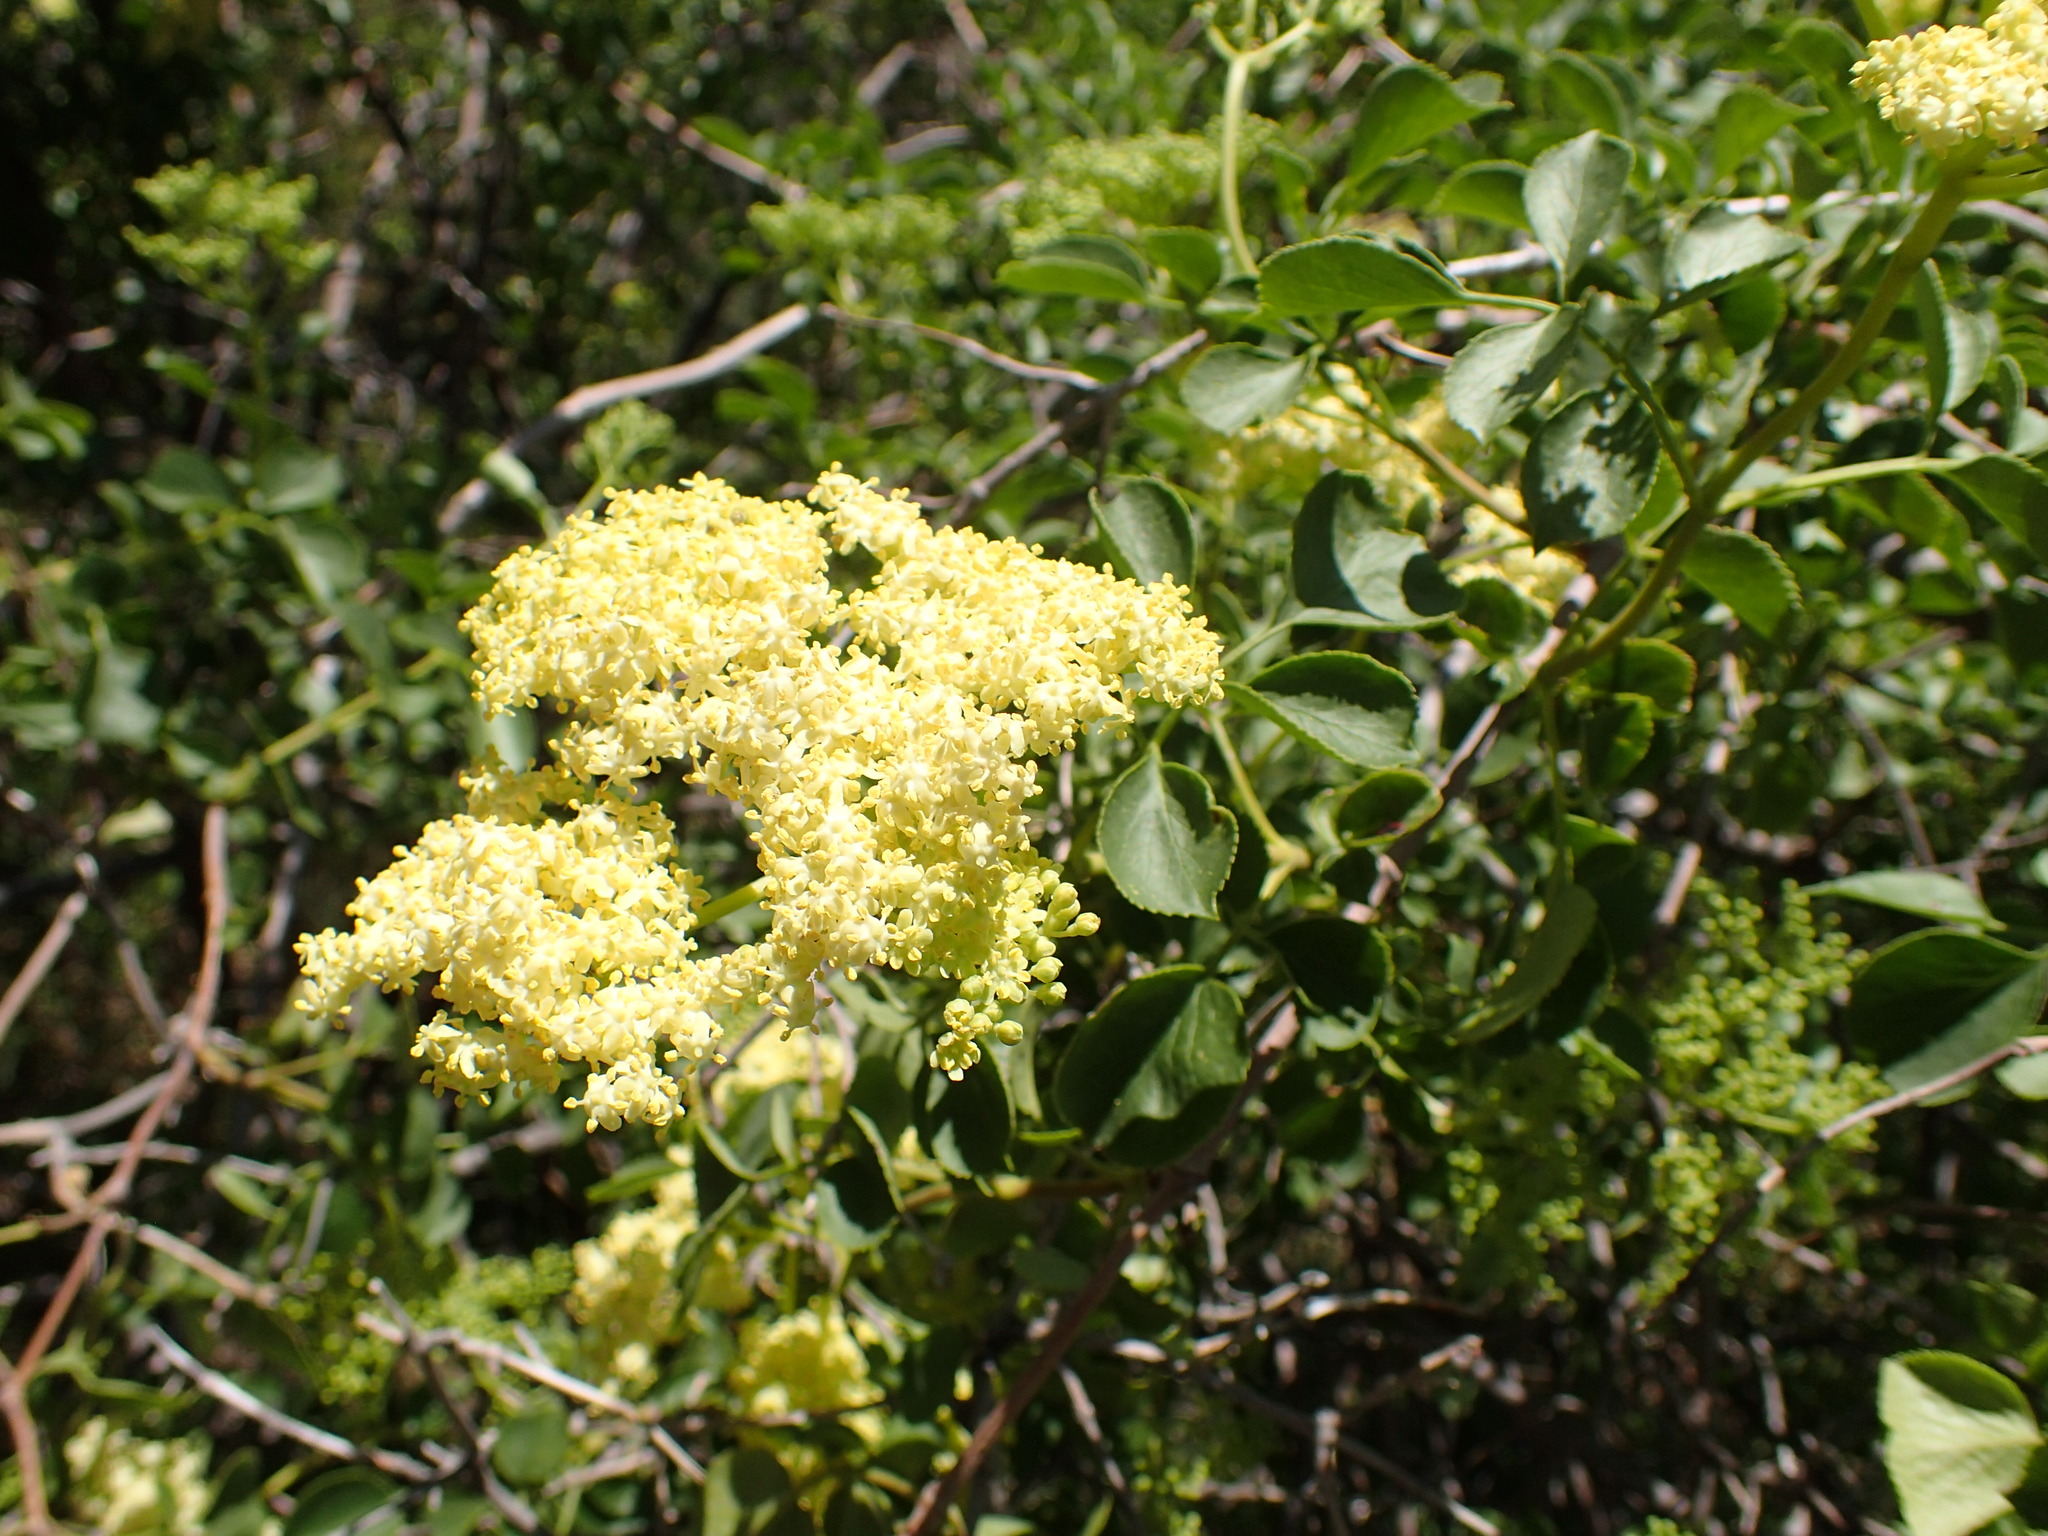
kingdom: Plantae
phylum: Tracheophyta
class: Magnoliopsida
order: Dipsacales
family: Viburnaceae
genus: Sambucus
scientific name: Sambucus cerulea
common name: Blue elder
